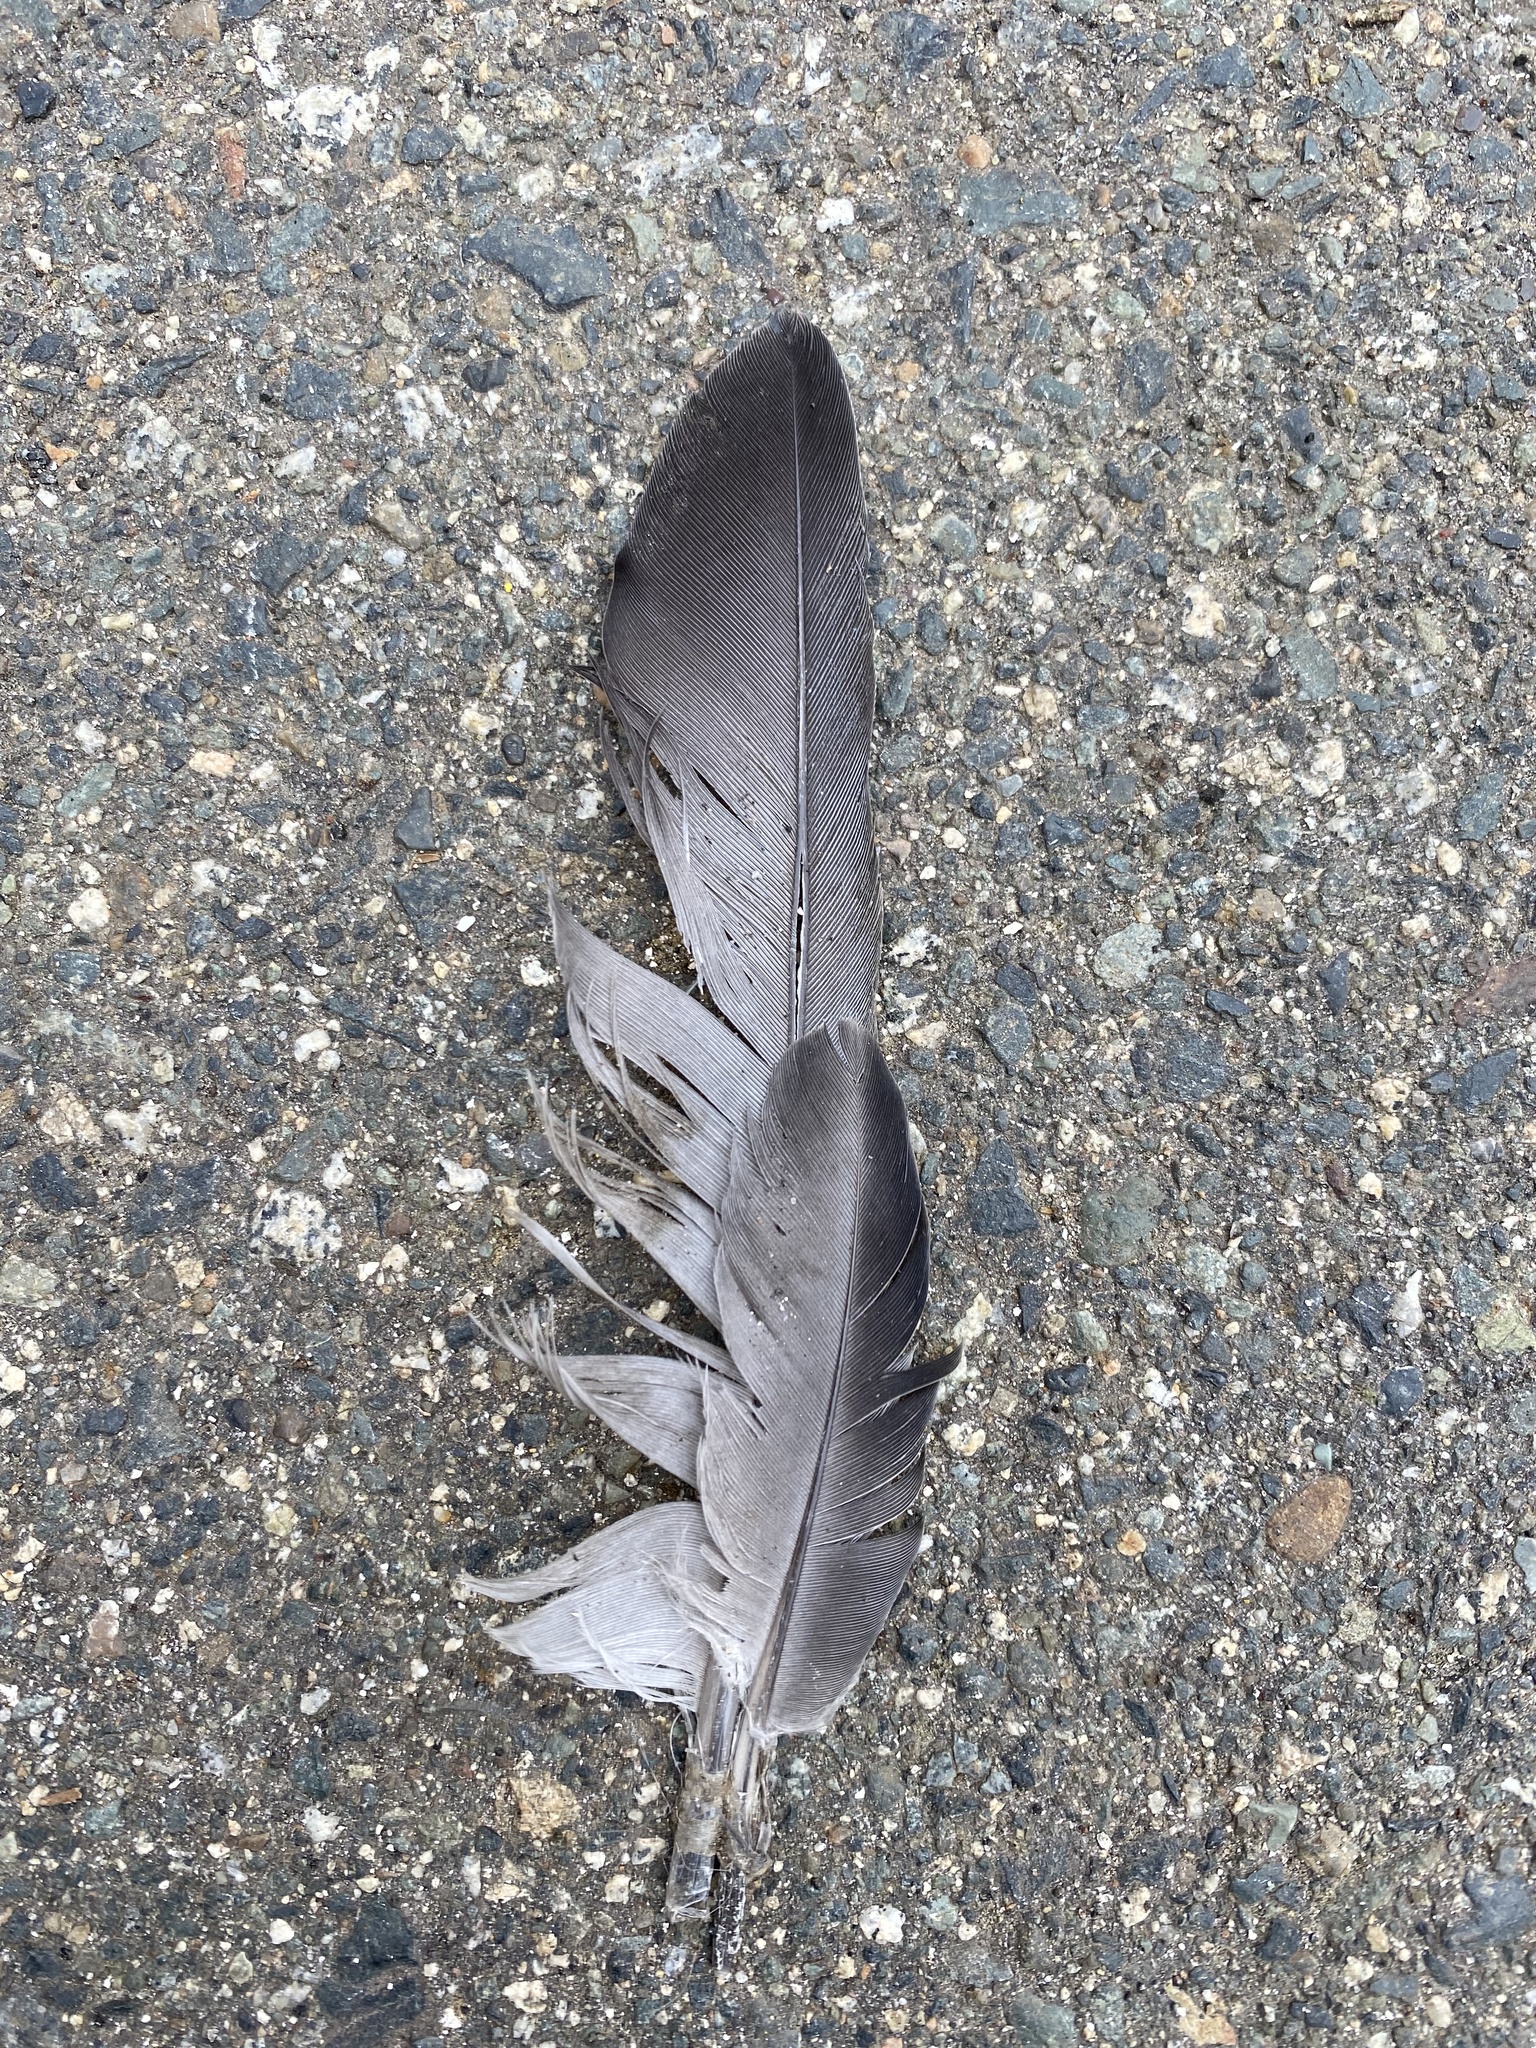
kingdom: Animalia
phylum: Chordata
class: Aves
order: Columbiformes
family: Columbidae
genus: Columba
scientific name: Columba livia
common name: Rock pigeon
